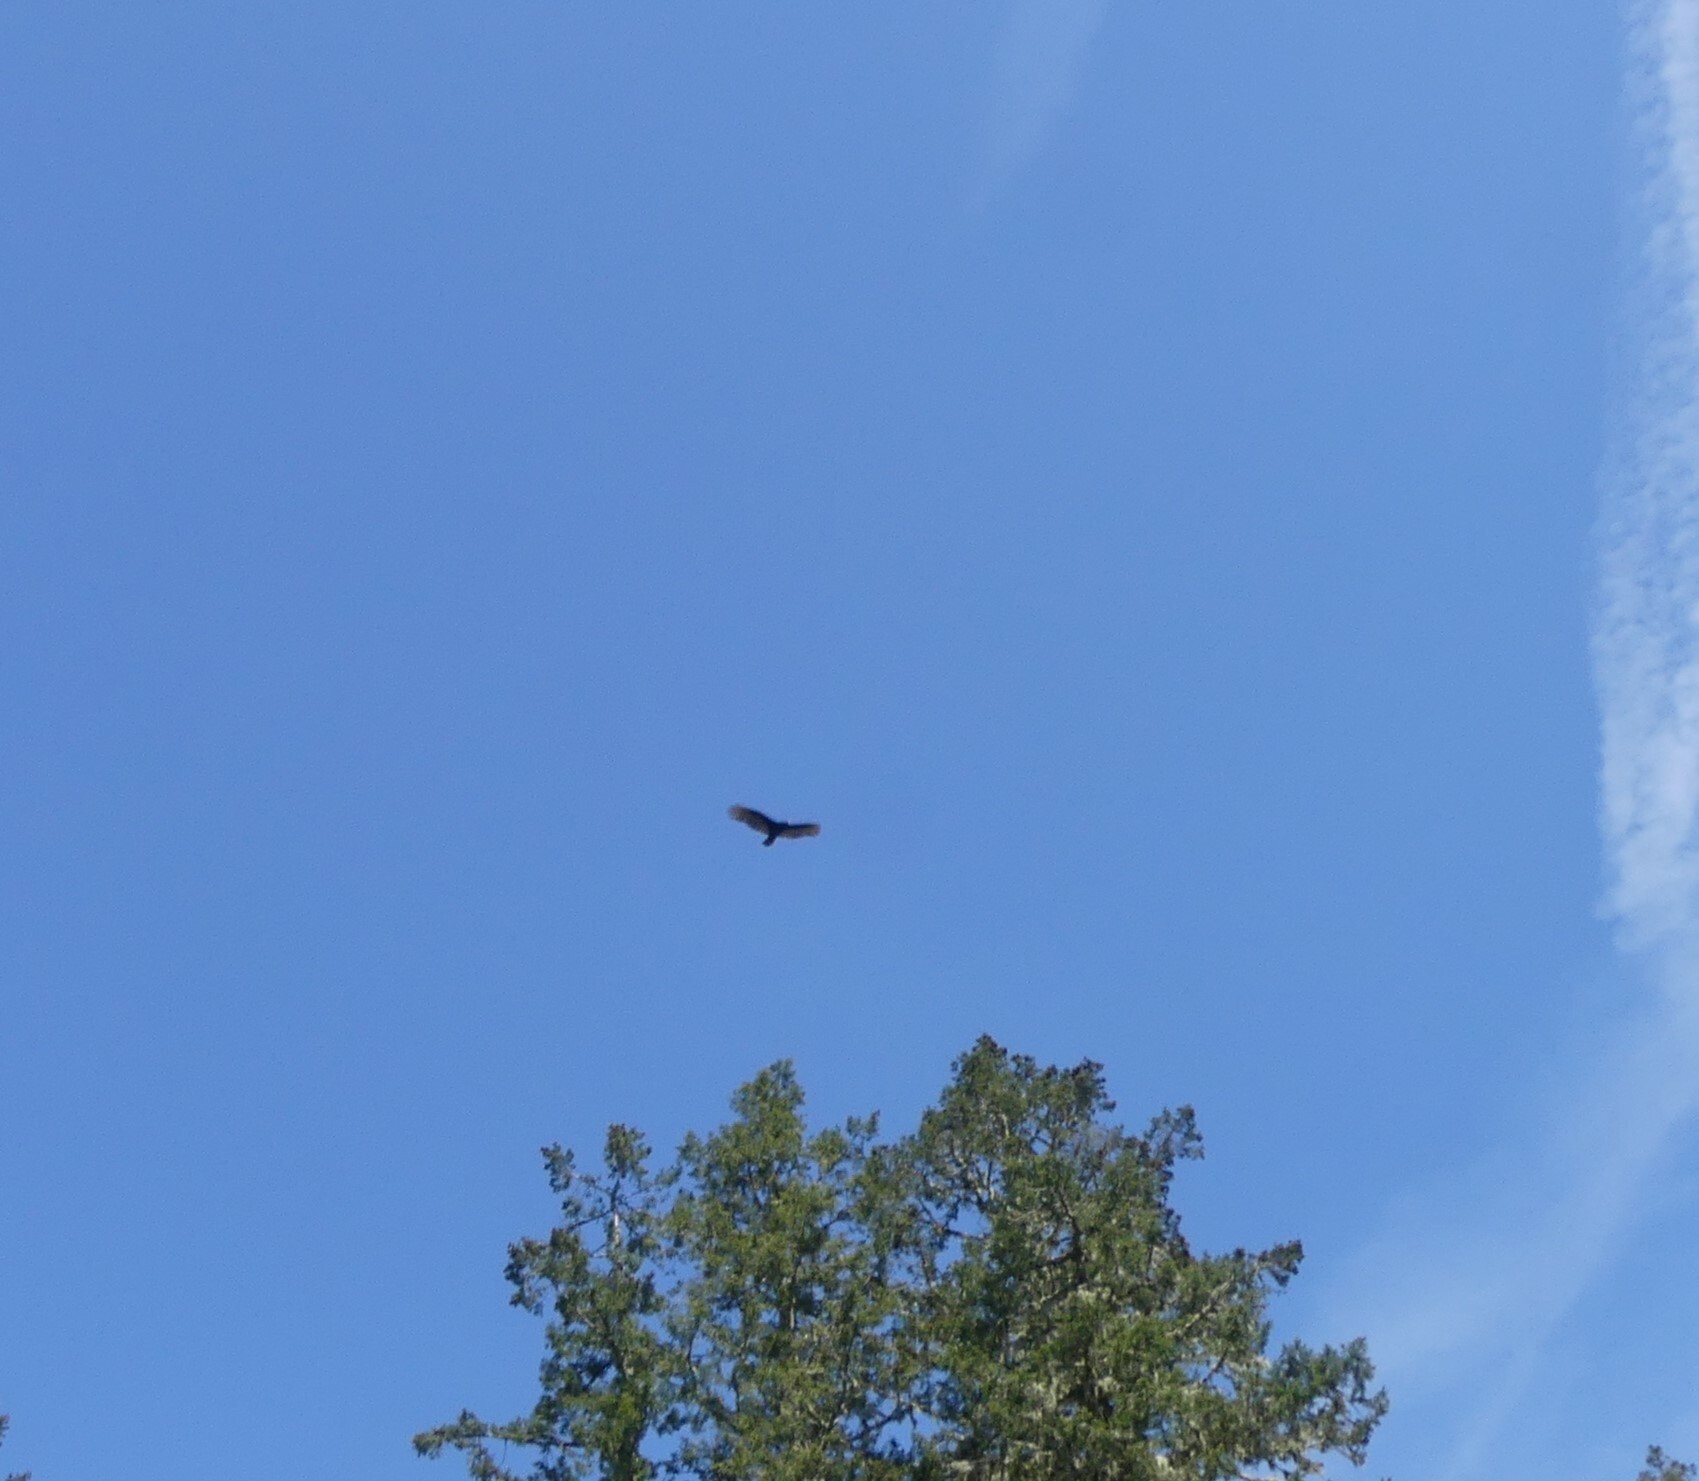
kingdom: Animalia
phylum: Chordata
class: Aves
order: Accipitriformes
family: Cathartidae
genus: Cathartes
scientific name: Cathartes aura
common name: Turkey vulture
